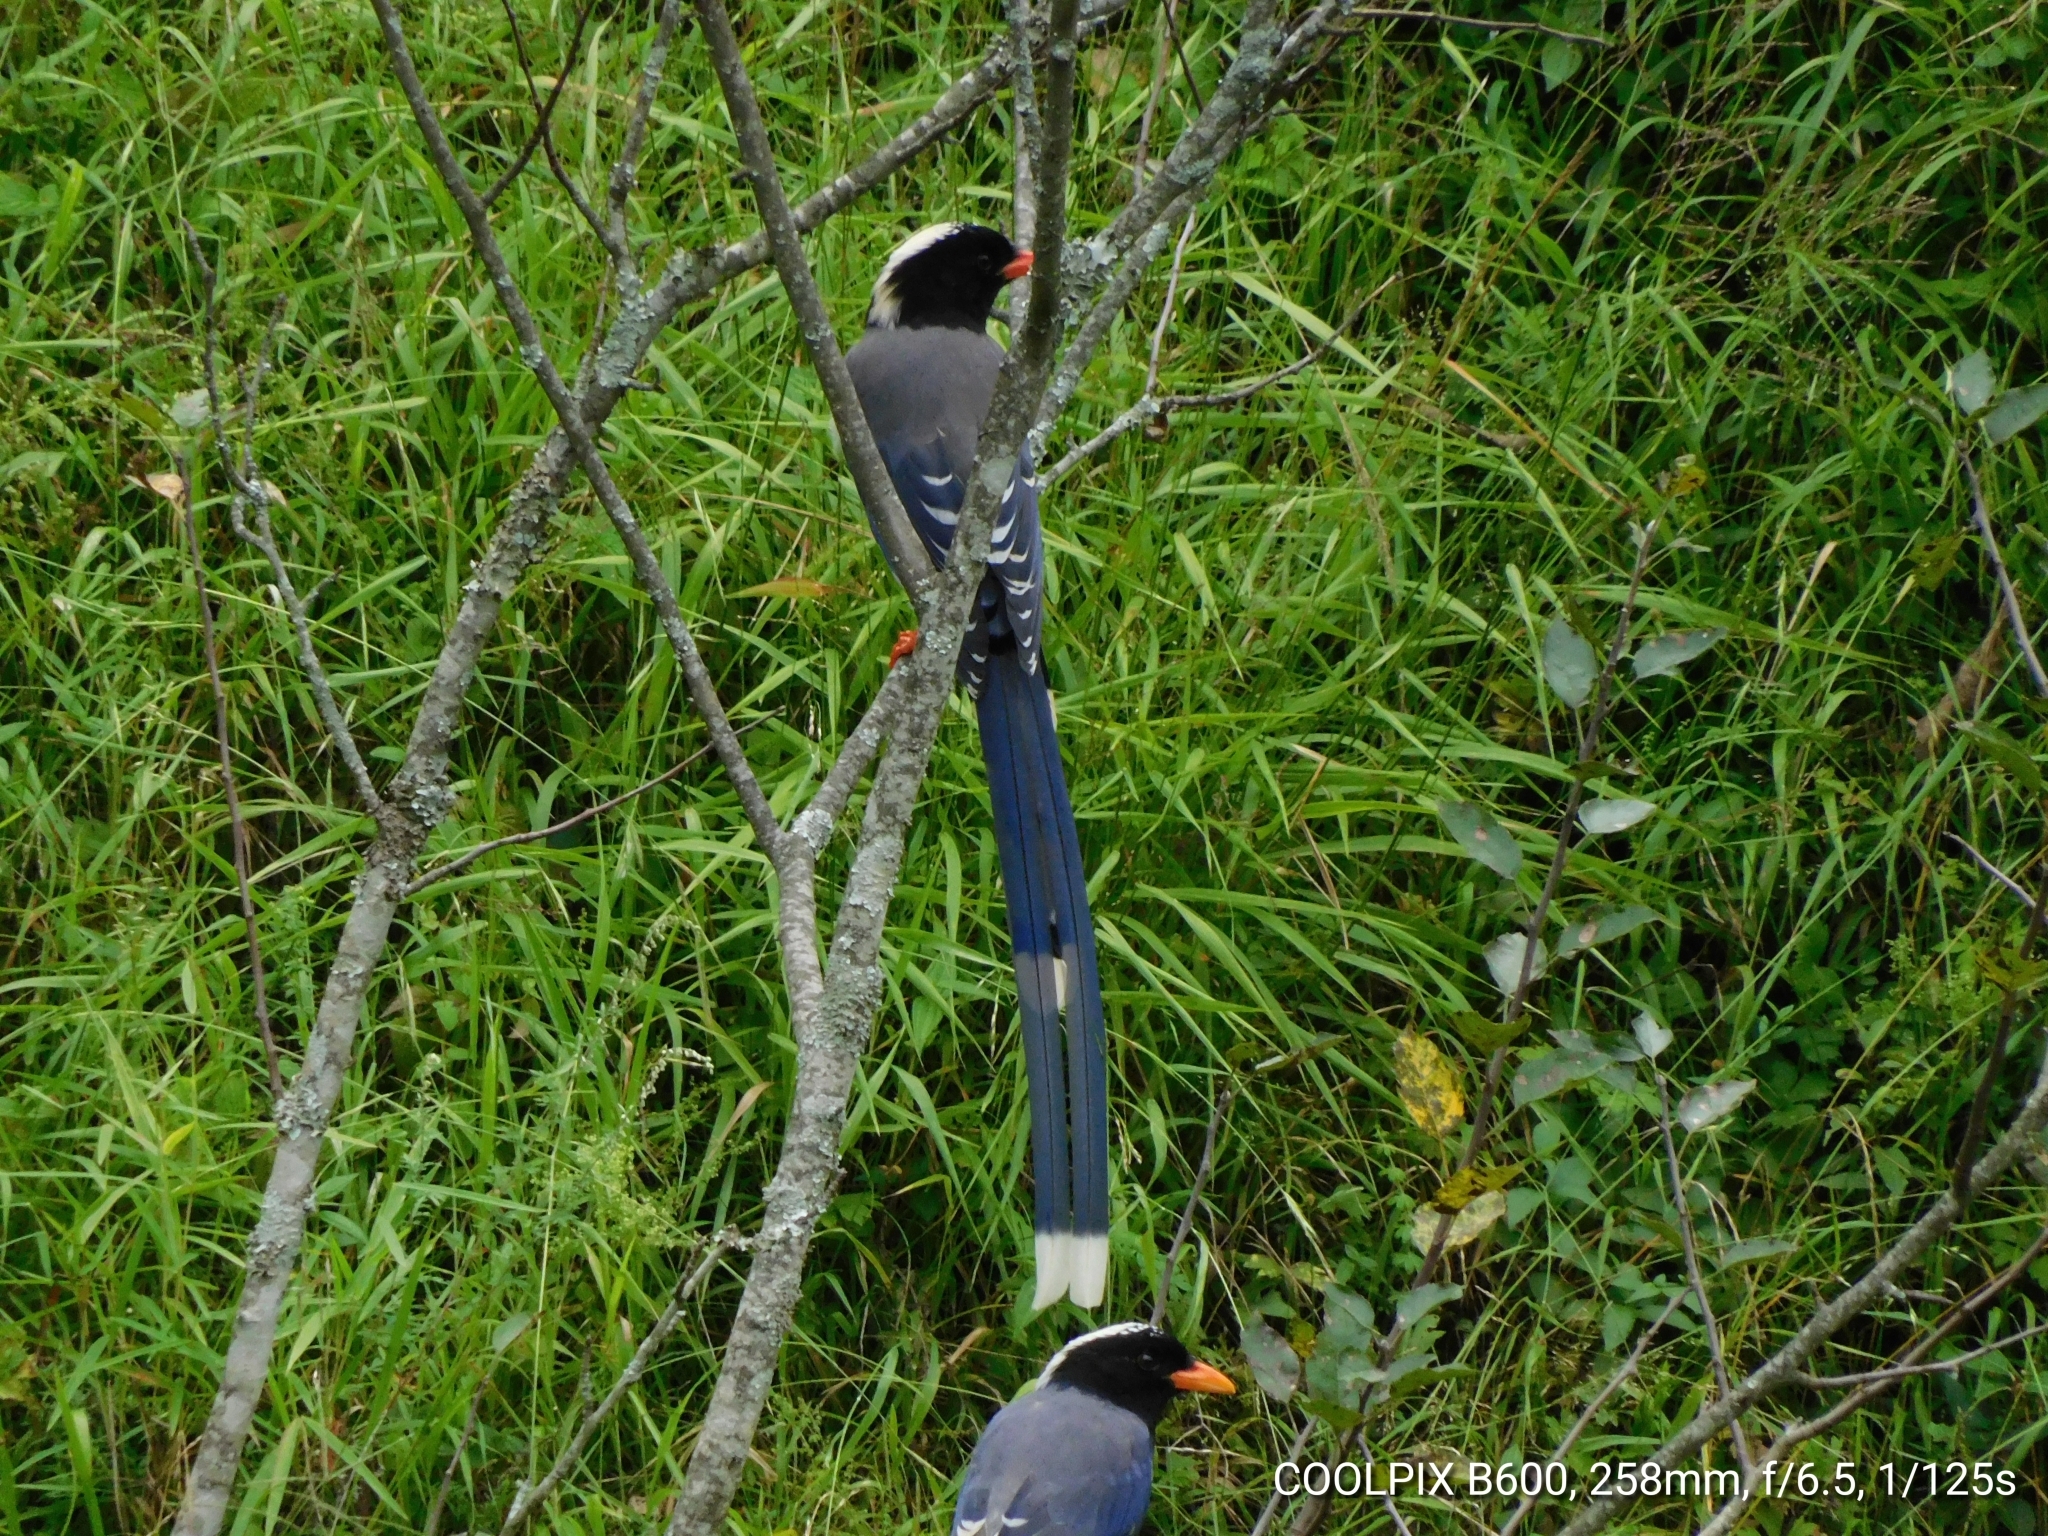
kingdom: Animalia
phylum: Chordata
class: Aves
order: Passeriformes
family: Corvidae
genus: Urocissa
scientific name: Urocissa erythroryncha
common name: Red-billed blue magpie
